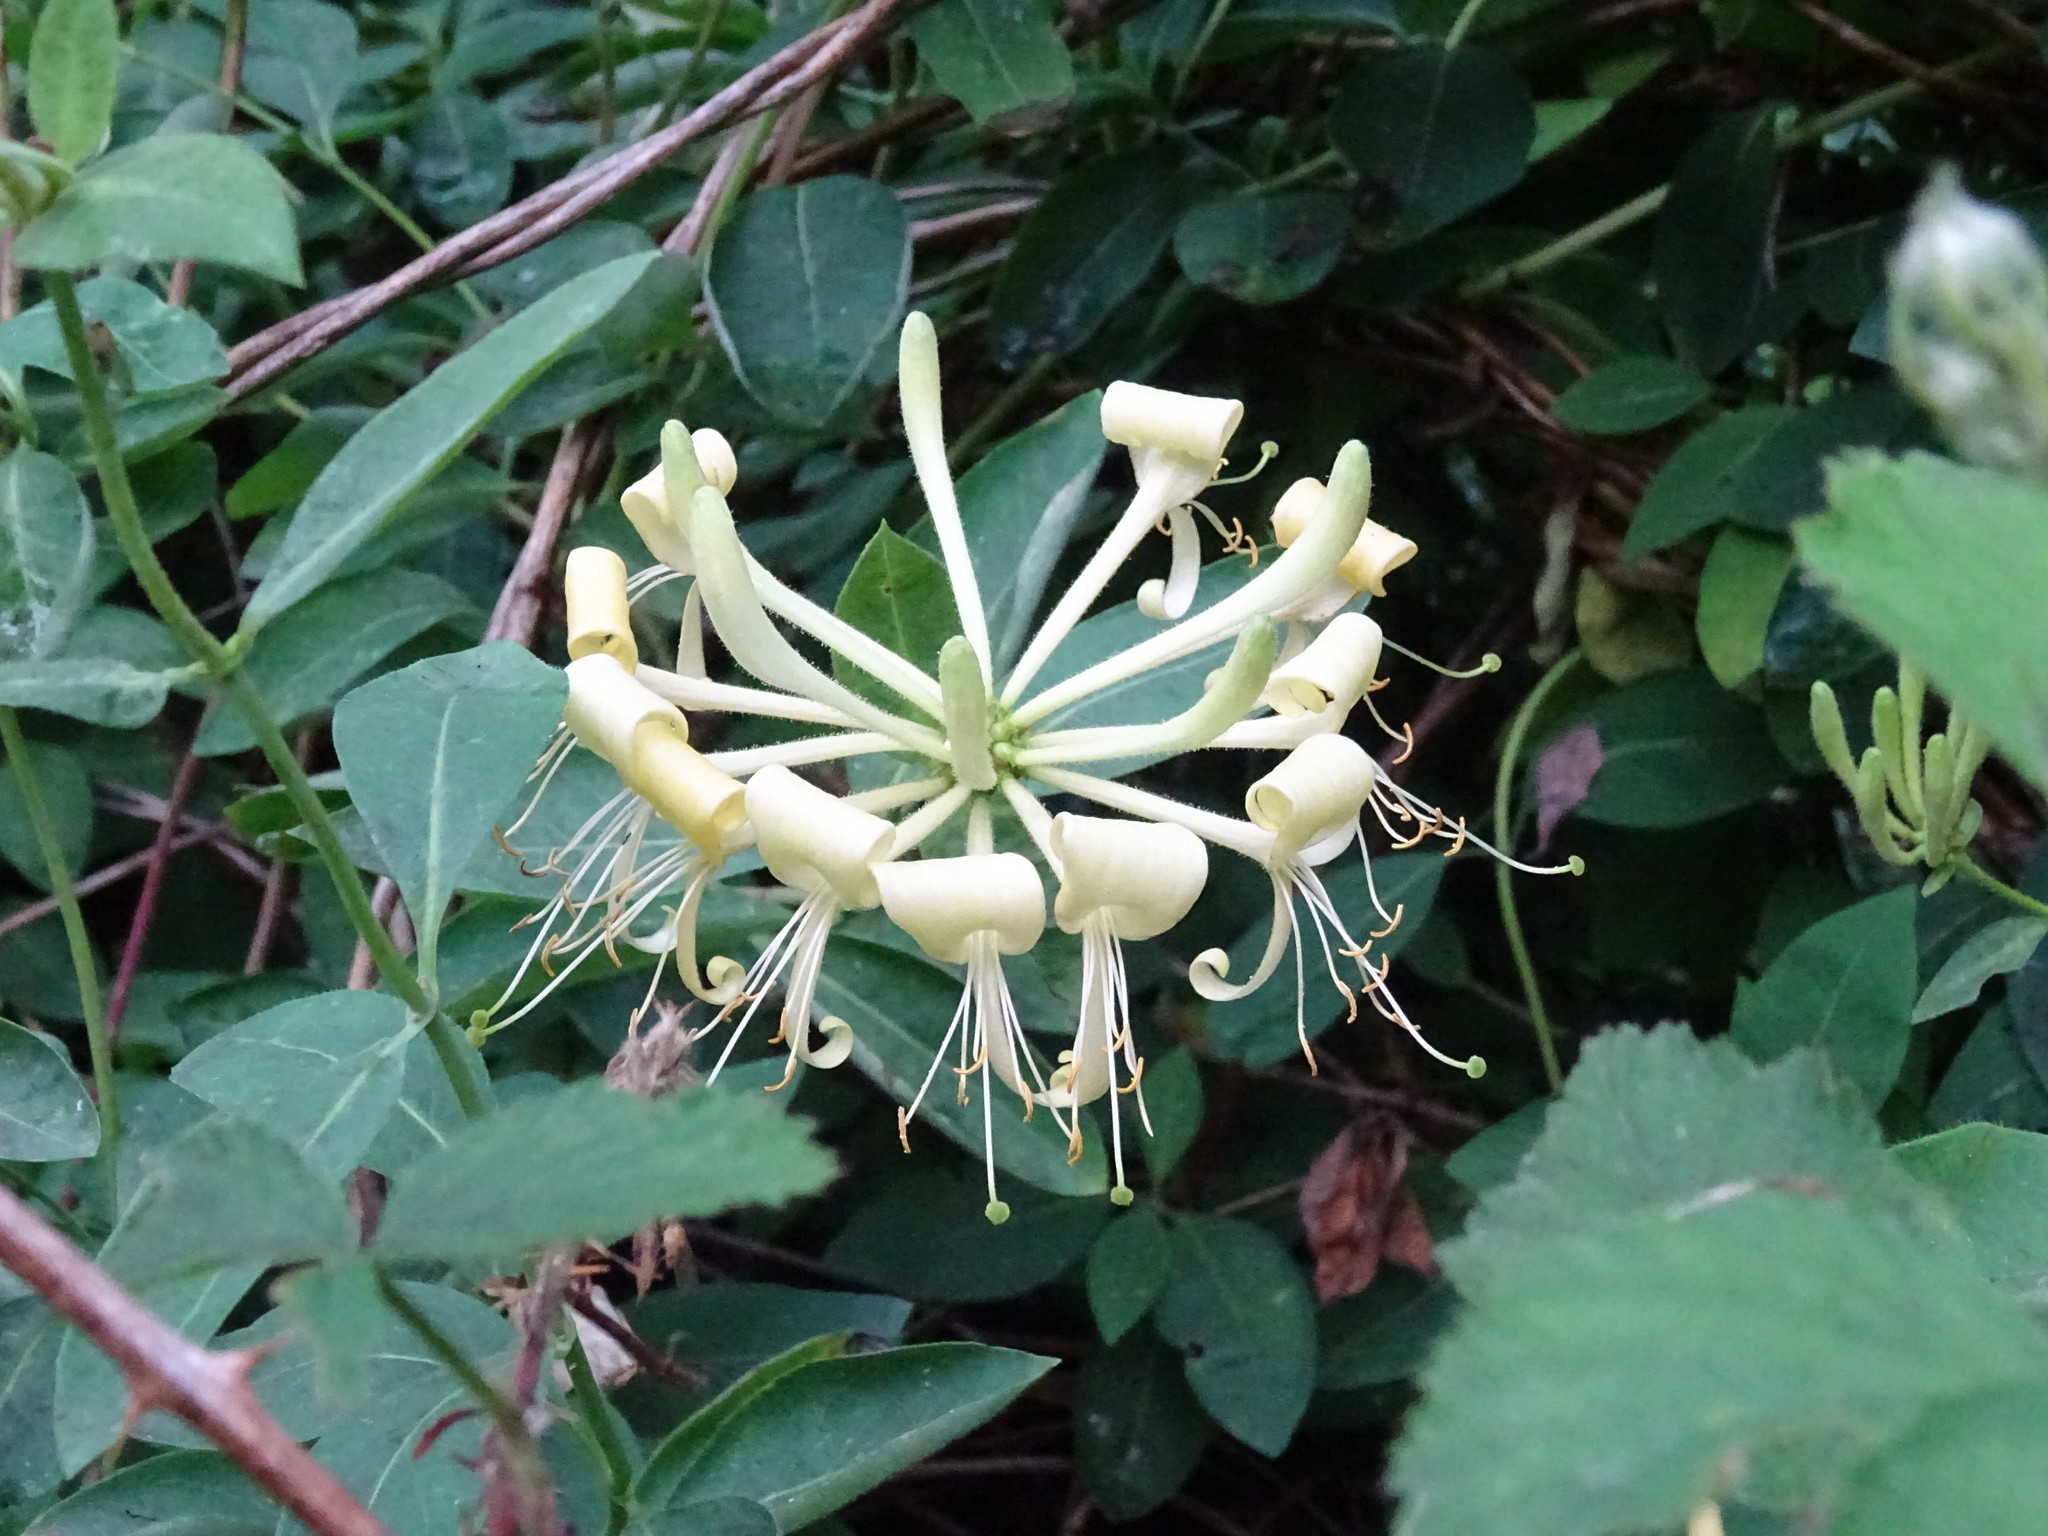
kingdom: Plantae
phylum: Tracheophyta
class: Magnoliopsida
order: Dipsacales
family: Caprifoliaceae
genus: Lonicera
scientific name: Lonicera periclymenum
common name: European honeysuckle
